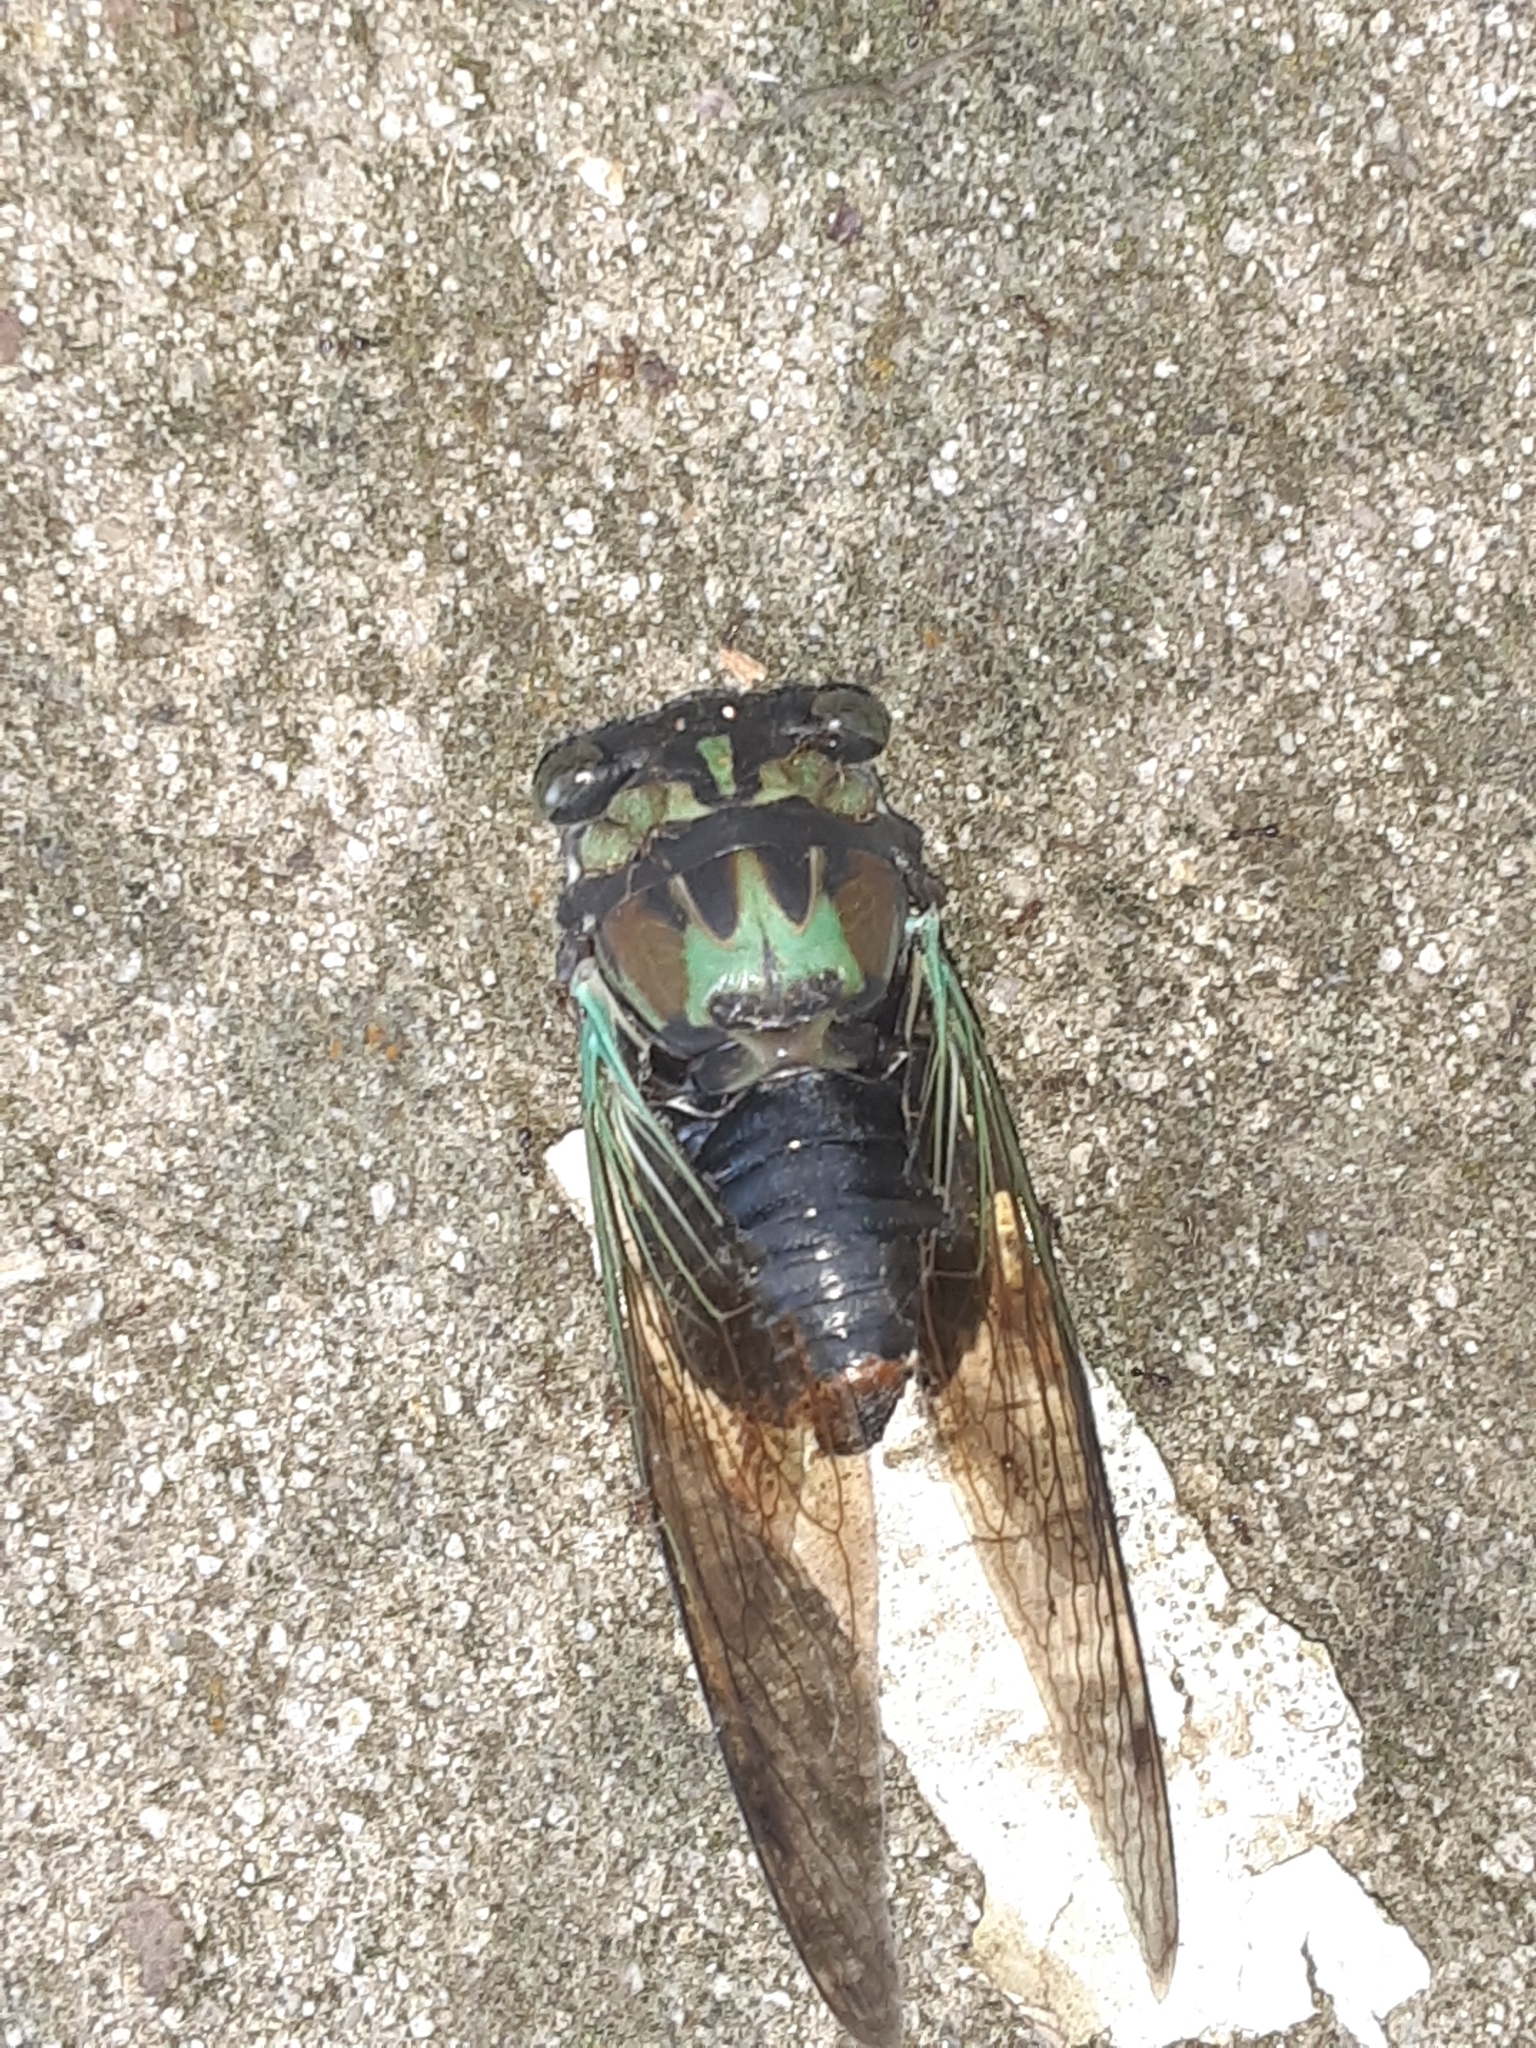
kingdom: Animalia
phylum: Arthropoda
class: Insecta
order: Hemiptera
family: Cicadidae
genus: Neotibicen
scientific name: Neotibicen lyricen
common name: Lyric cicada
